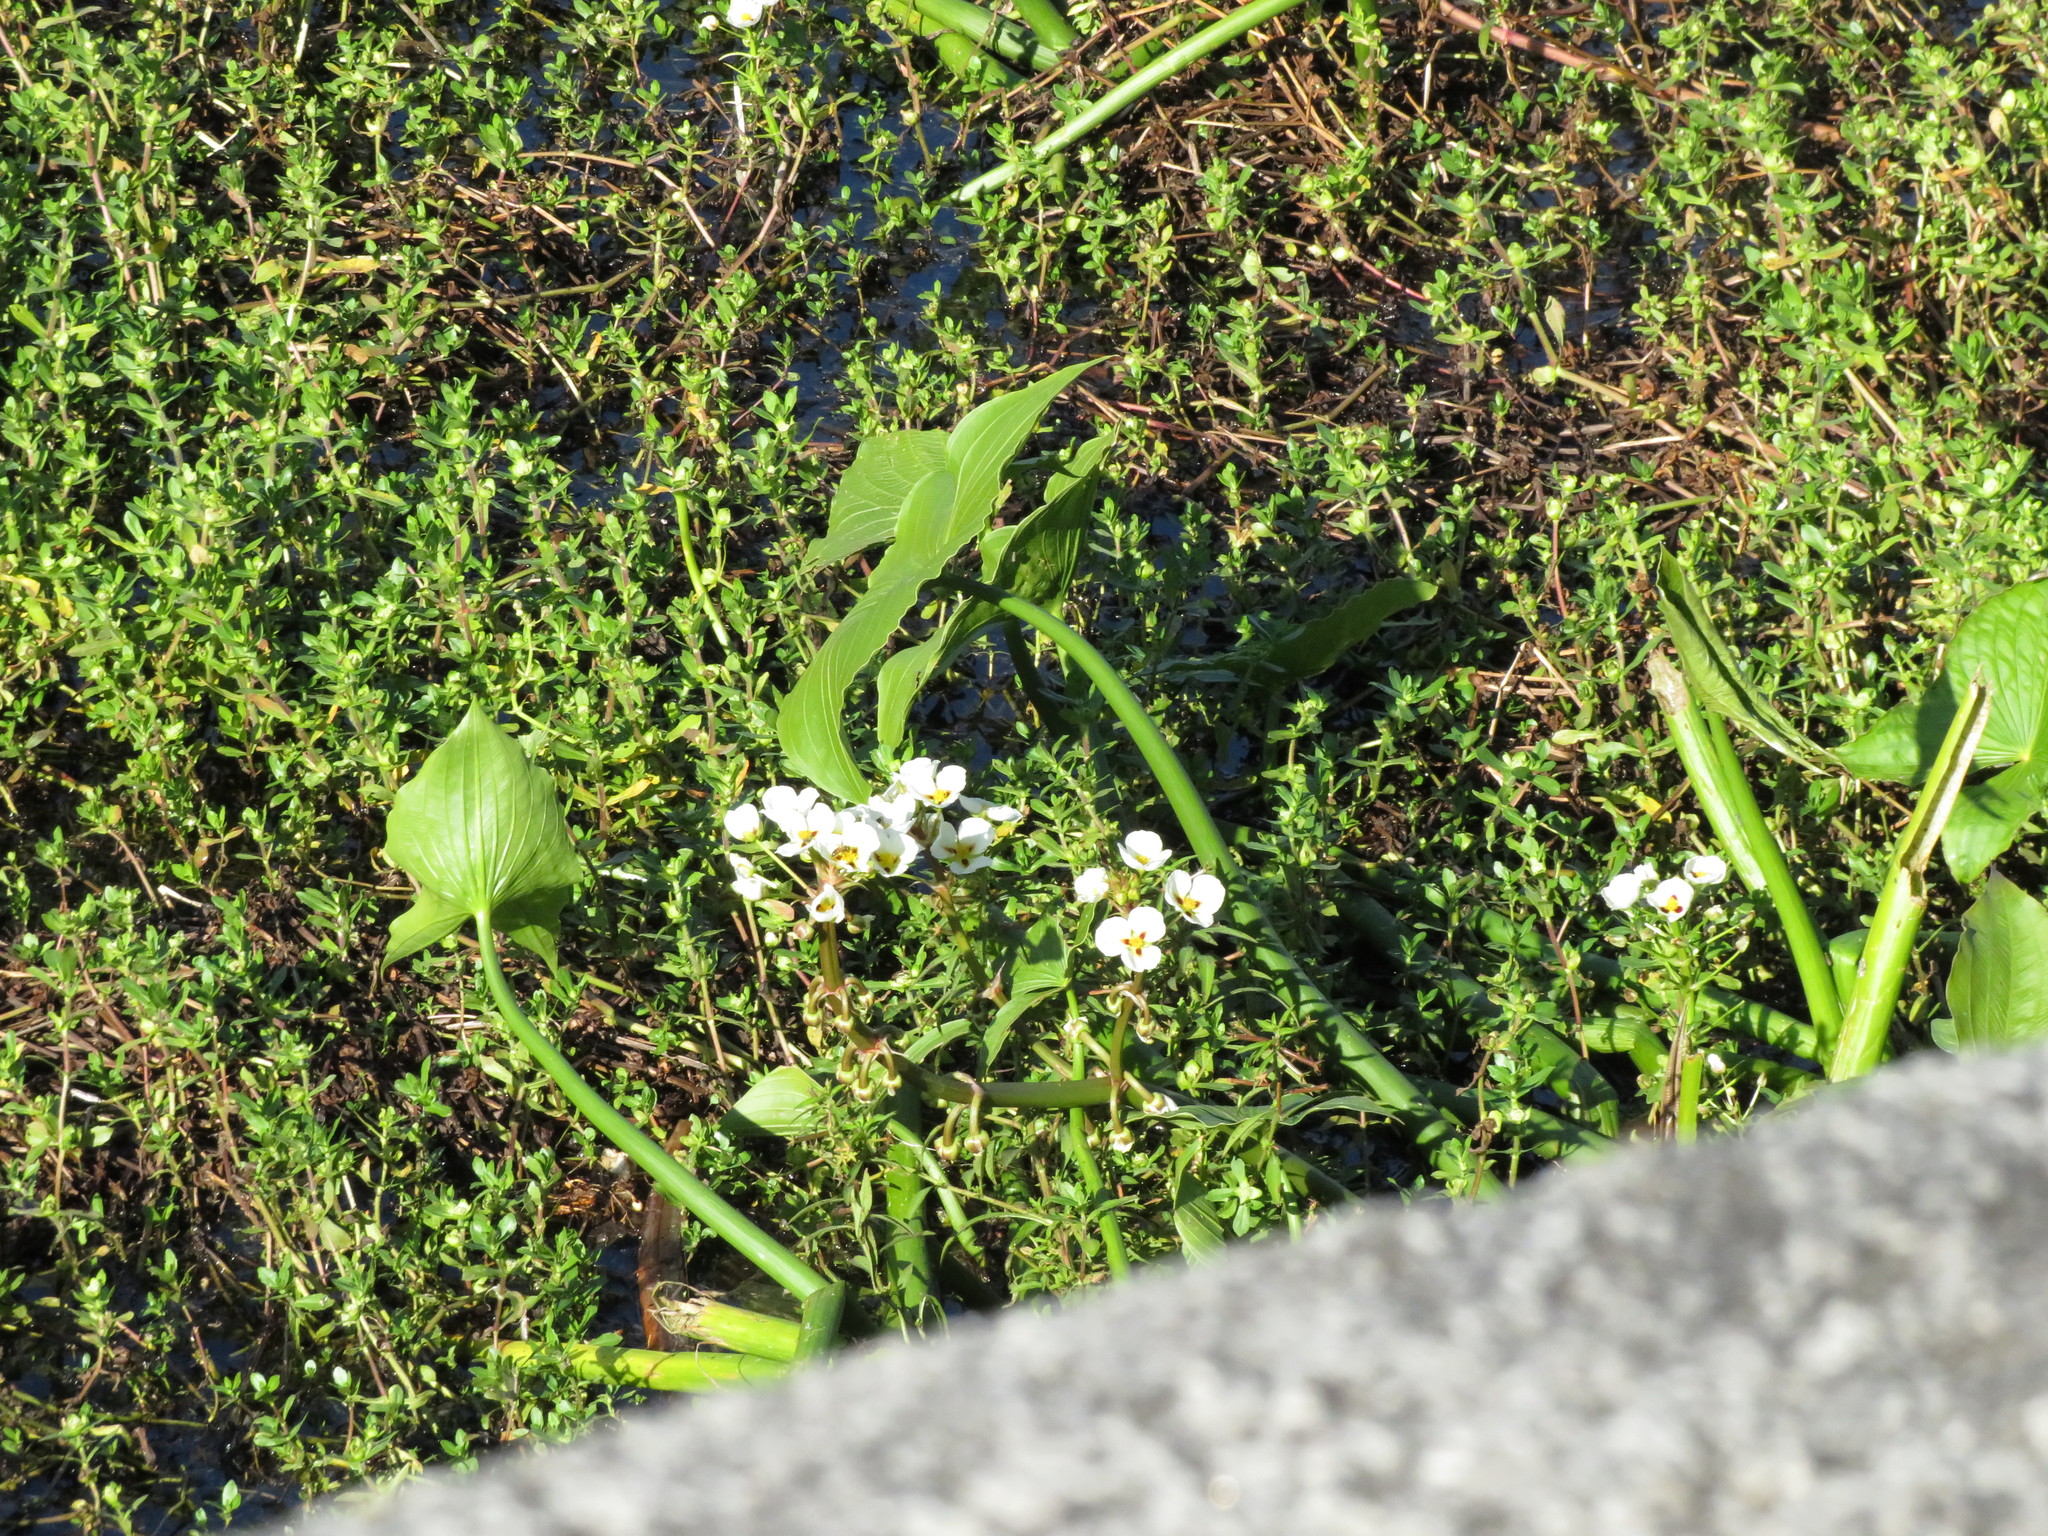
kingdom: Plantae
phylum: Tracheophyta
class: Liliopsida
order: Alismatales
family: Alismataceae
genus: Sagittaria
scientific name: Sagittaria montevidensis
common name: Giant arrowhead
